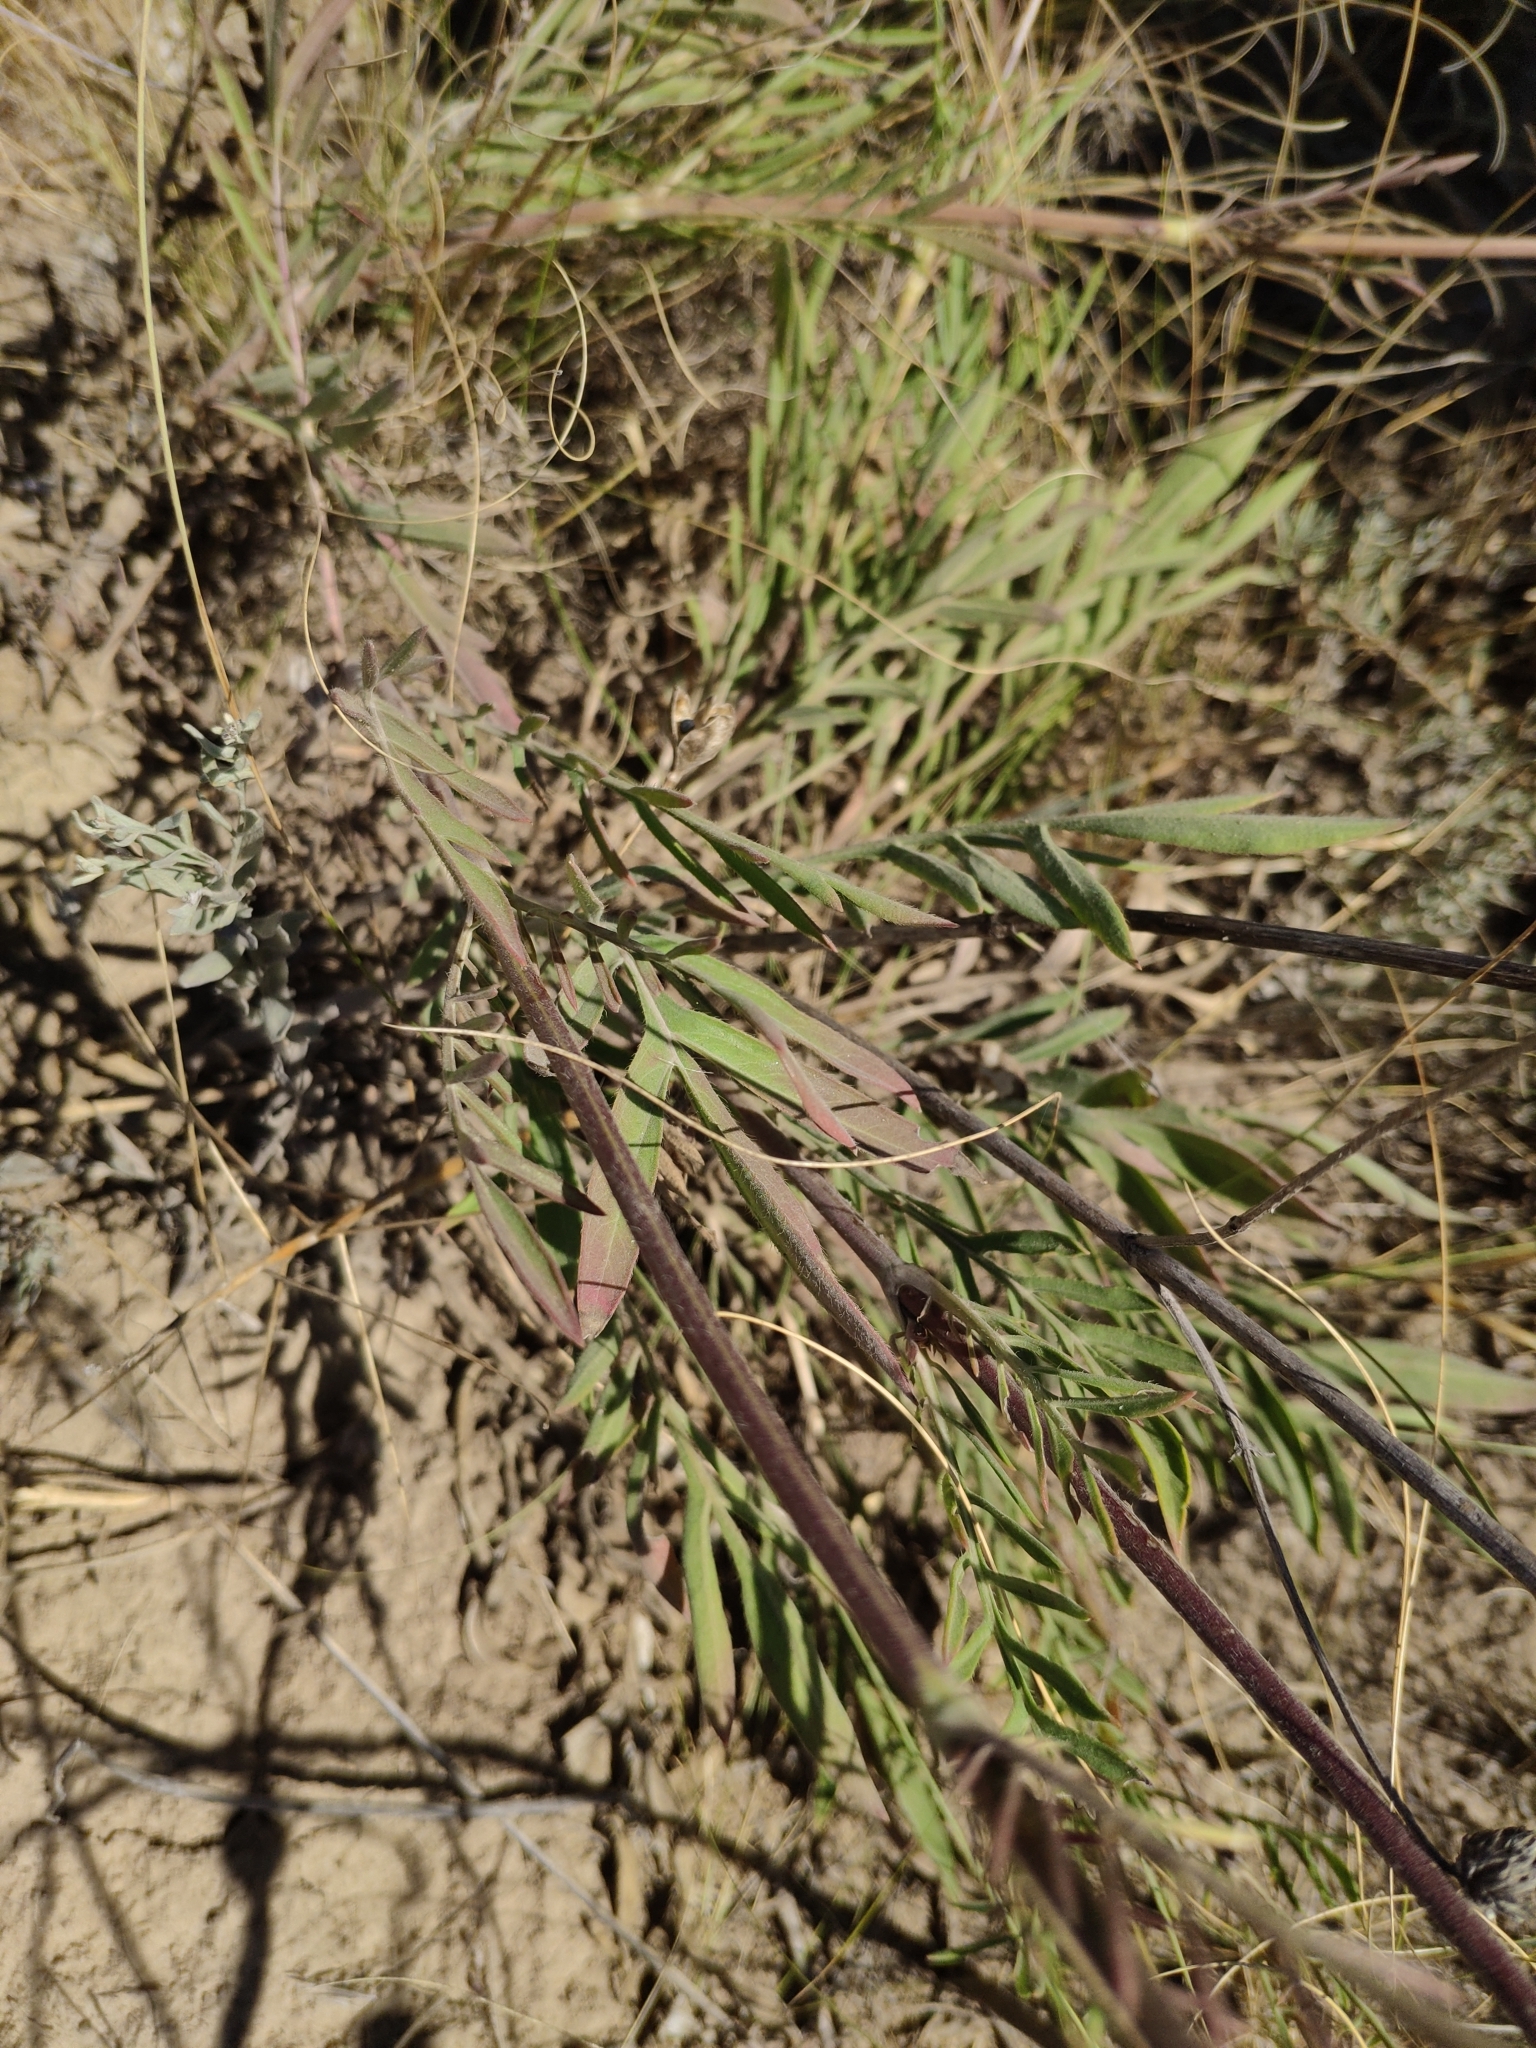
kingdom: Plantae
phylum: Tracheophyta
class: Magnoliopsida
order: Dipsacales
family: Caprifoliaceae
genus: Cephalaria
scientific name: Cephalaria uralensis
